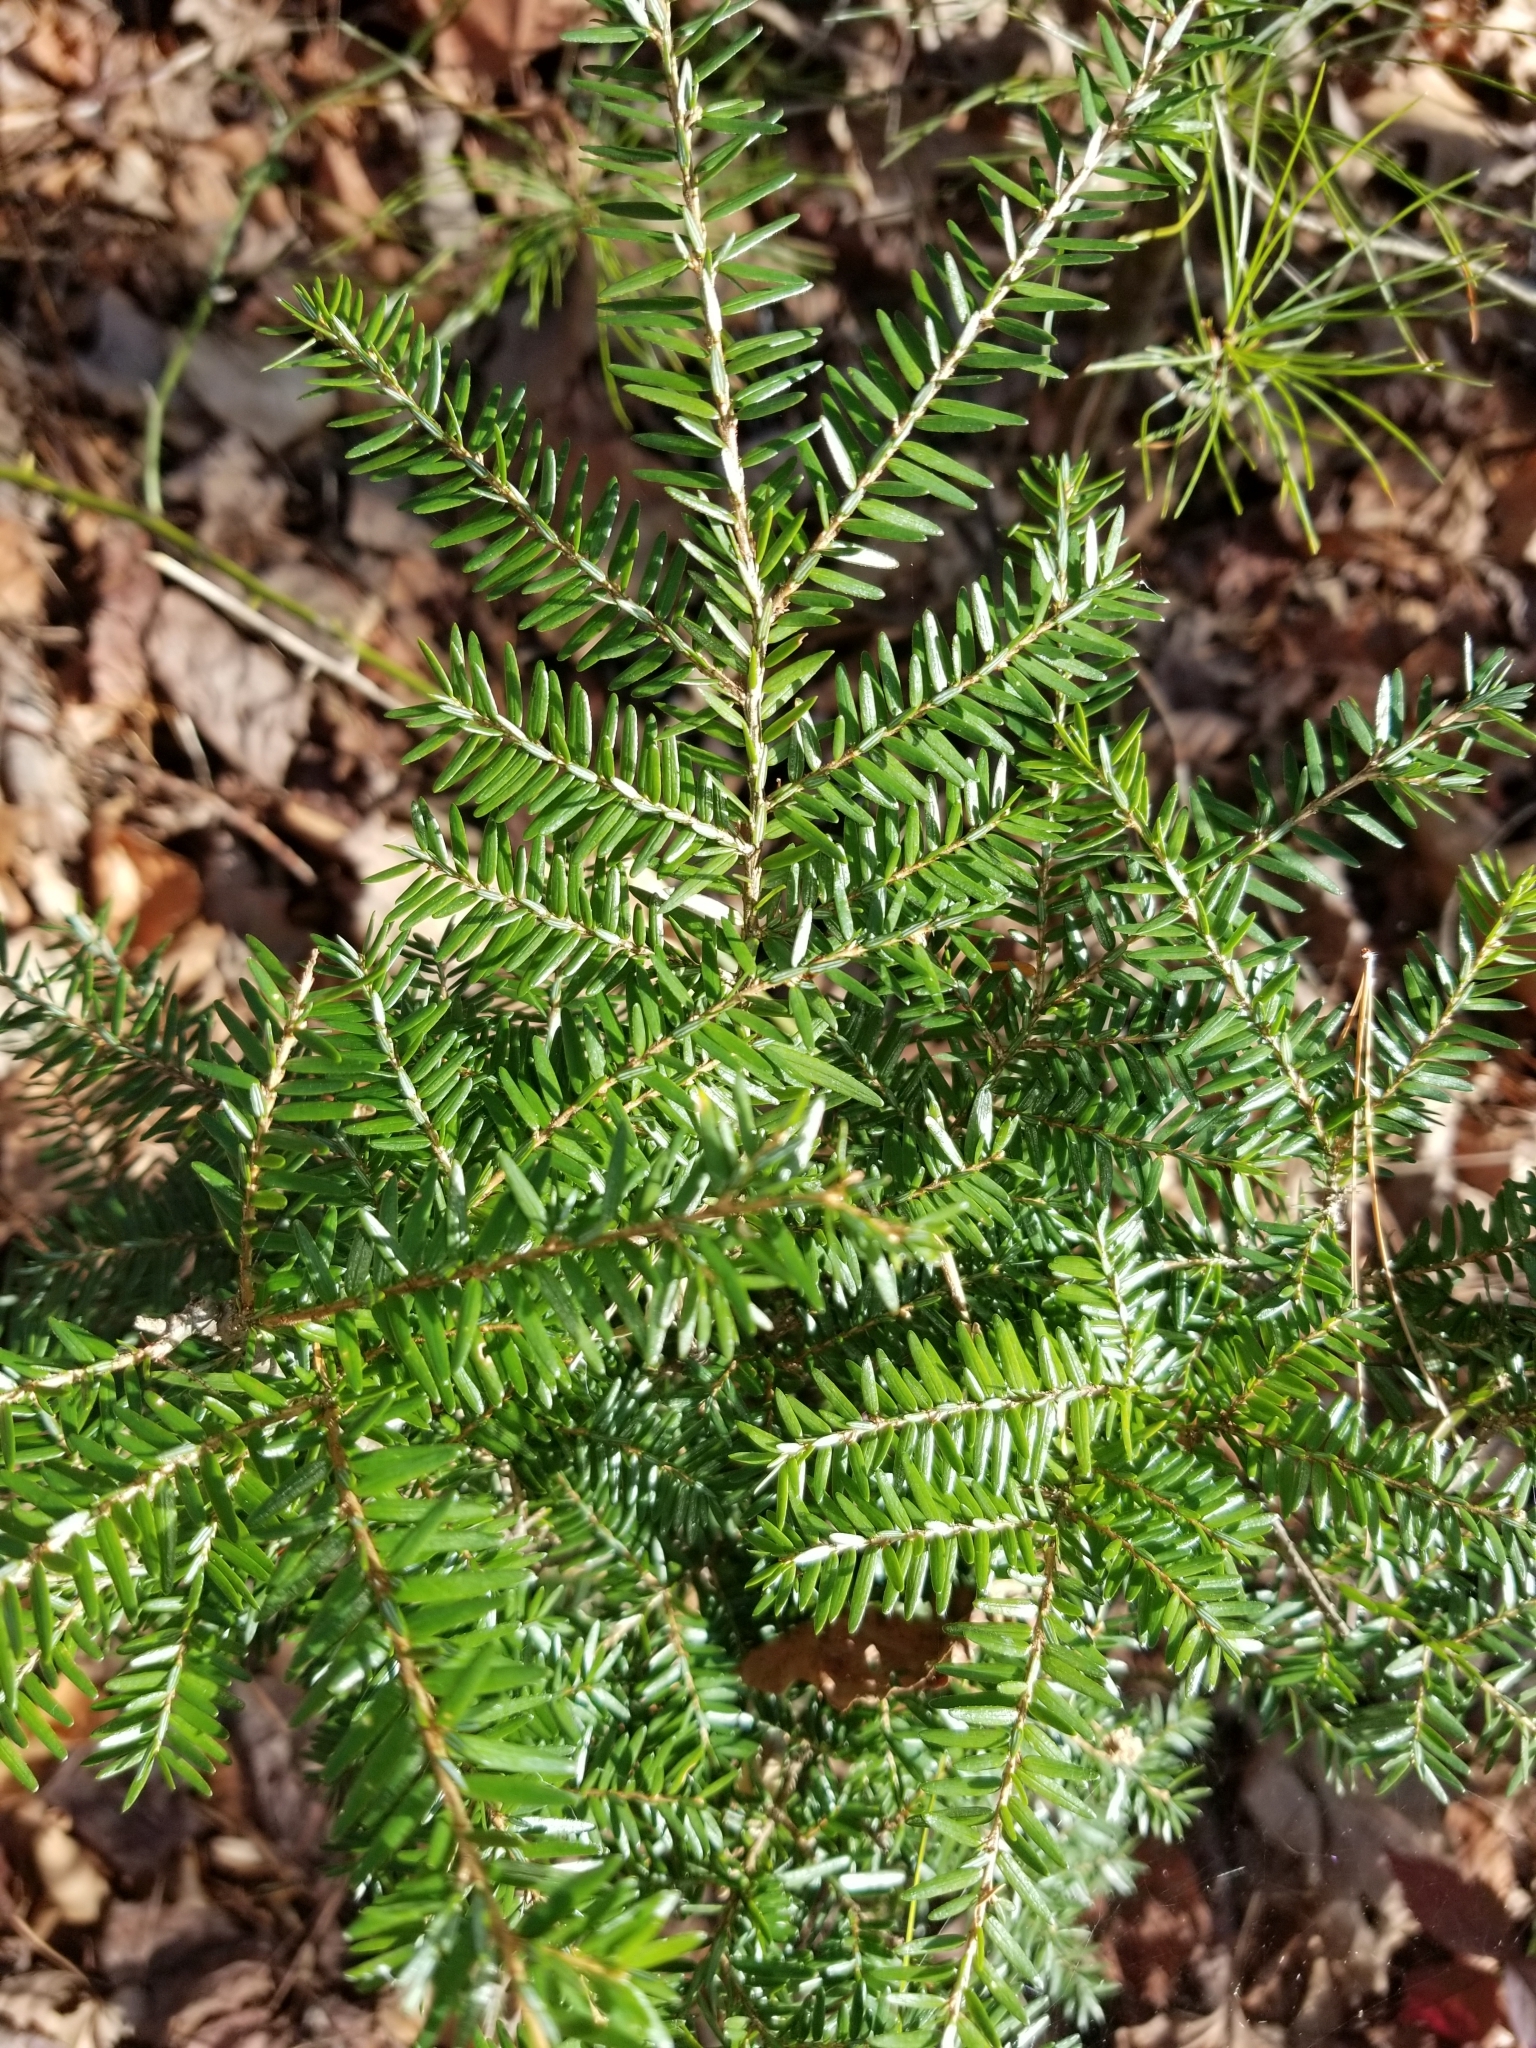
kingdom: Plantae
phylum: Tracheophyta
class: Pinopsida
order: Pinales
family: Pinaceae
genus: Tsuga
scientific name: Tsuga canadensis
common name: Eastern hemlock
